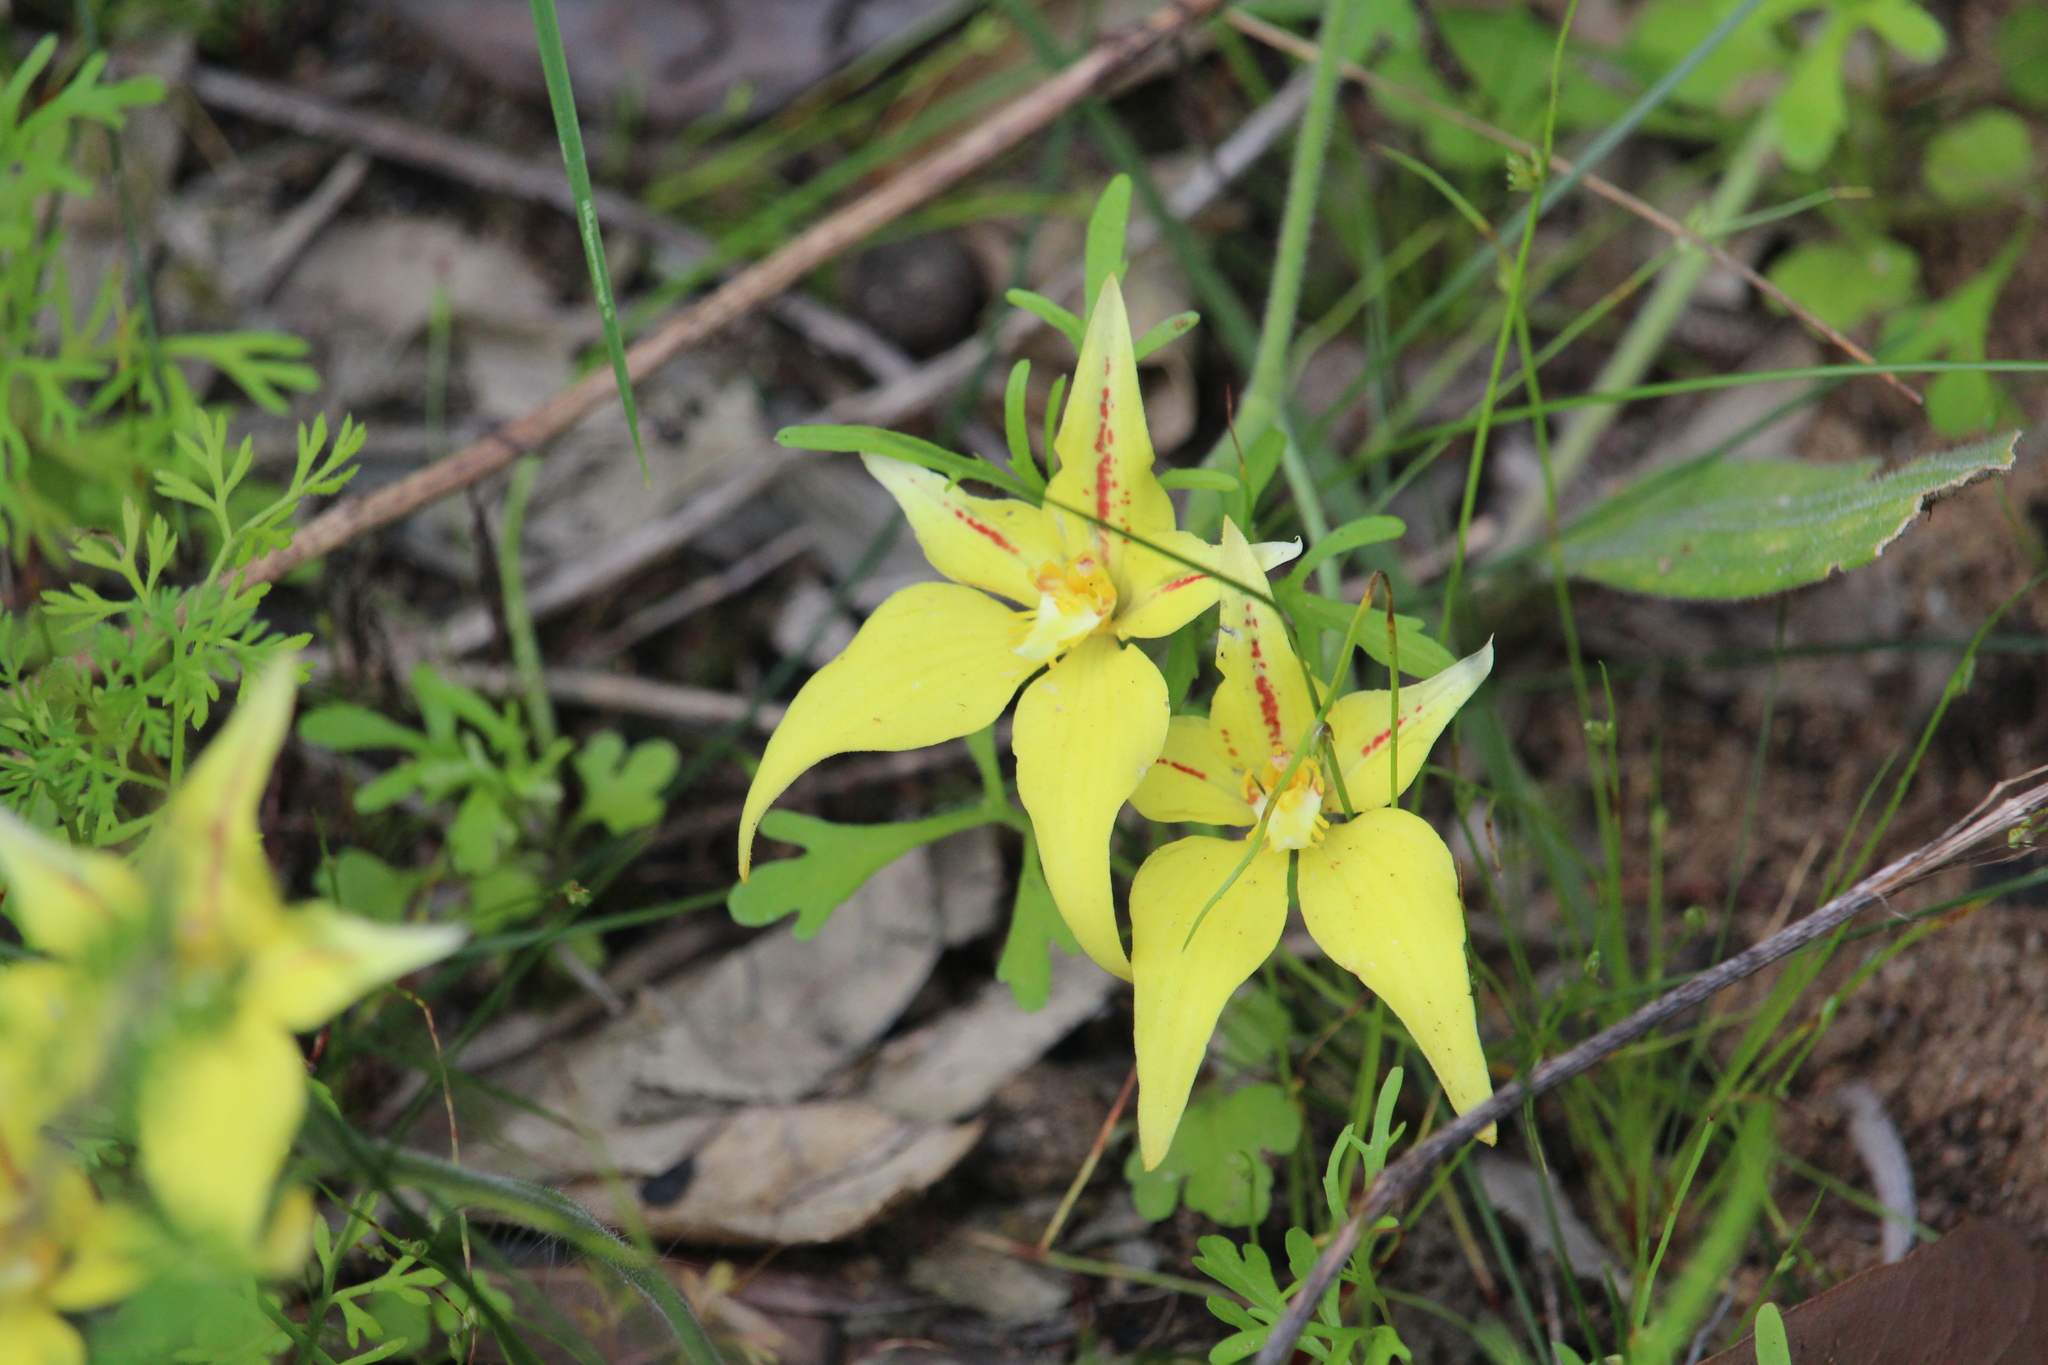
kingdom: Plantae
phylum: Tracheophyta
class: Liliopsida
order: Asparagales
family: Orchidaceae
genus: Caladenia
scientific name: Caladenia flava
